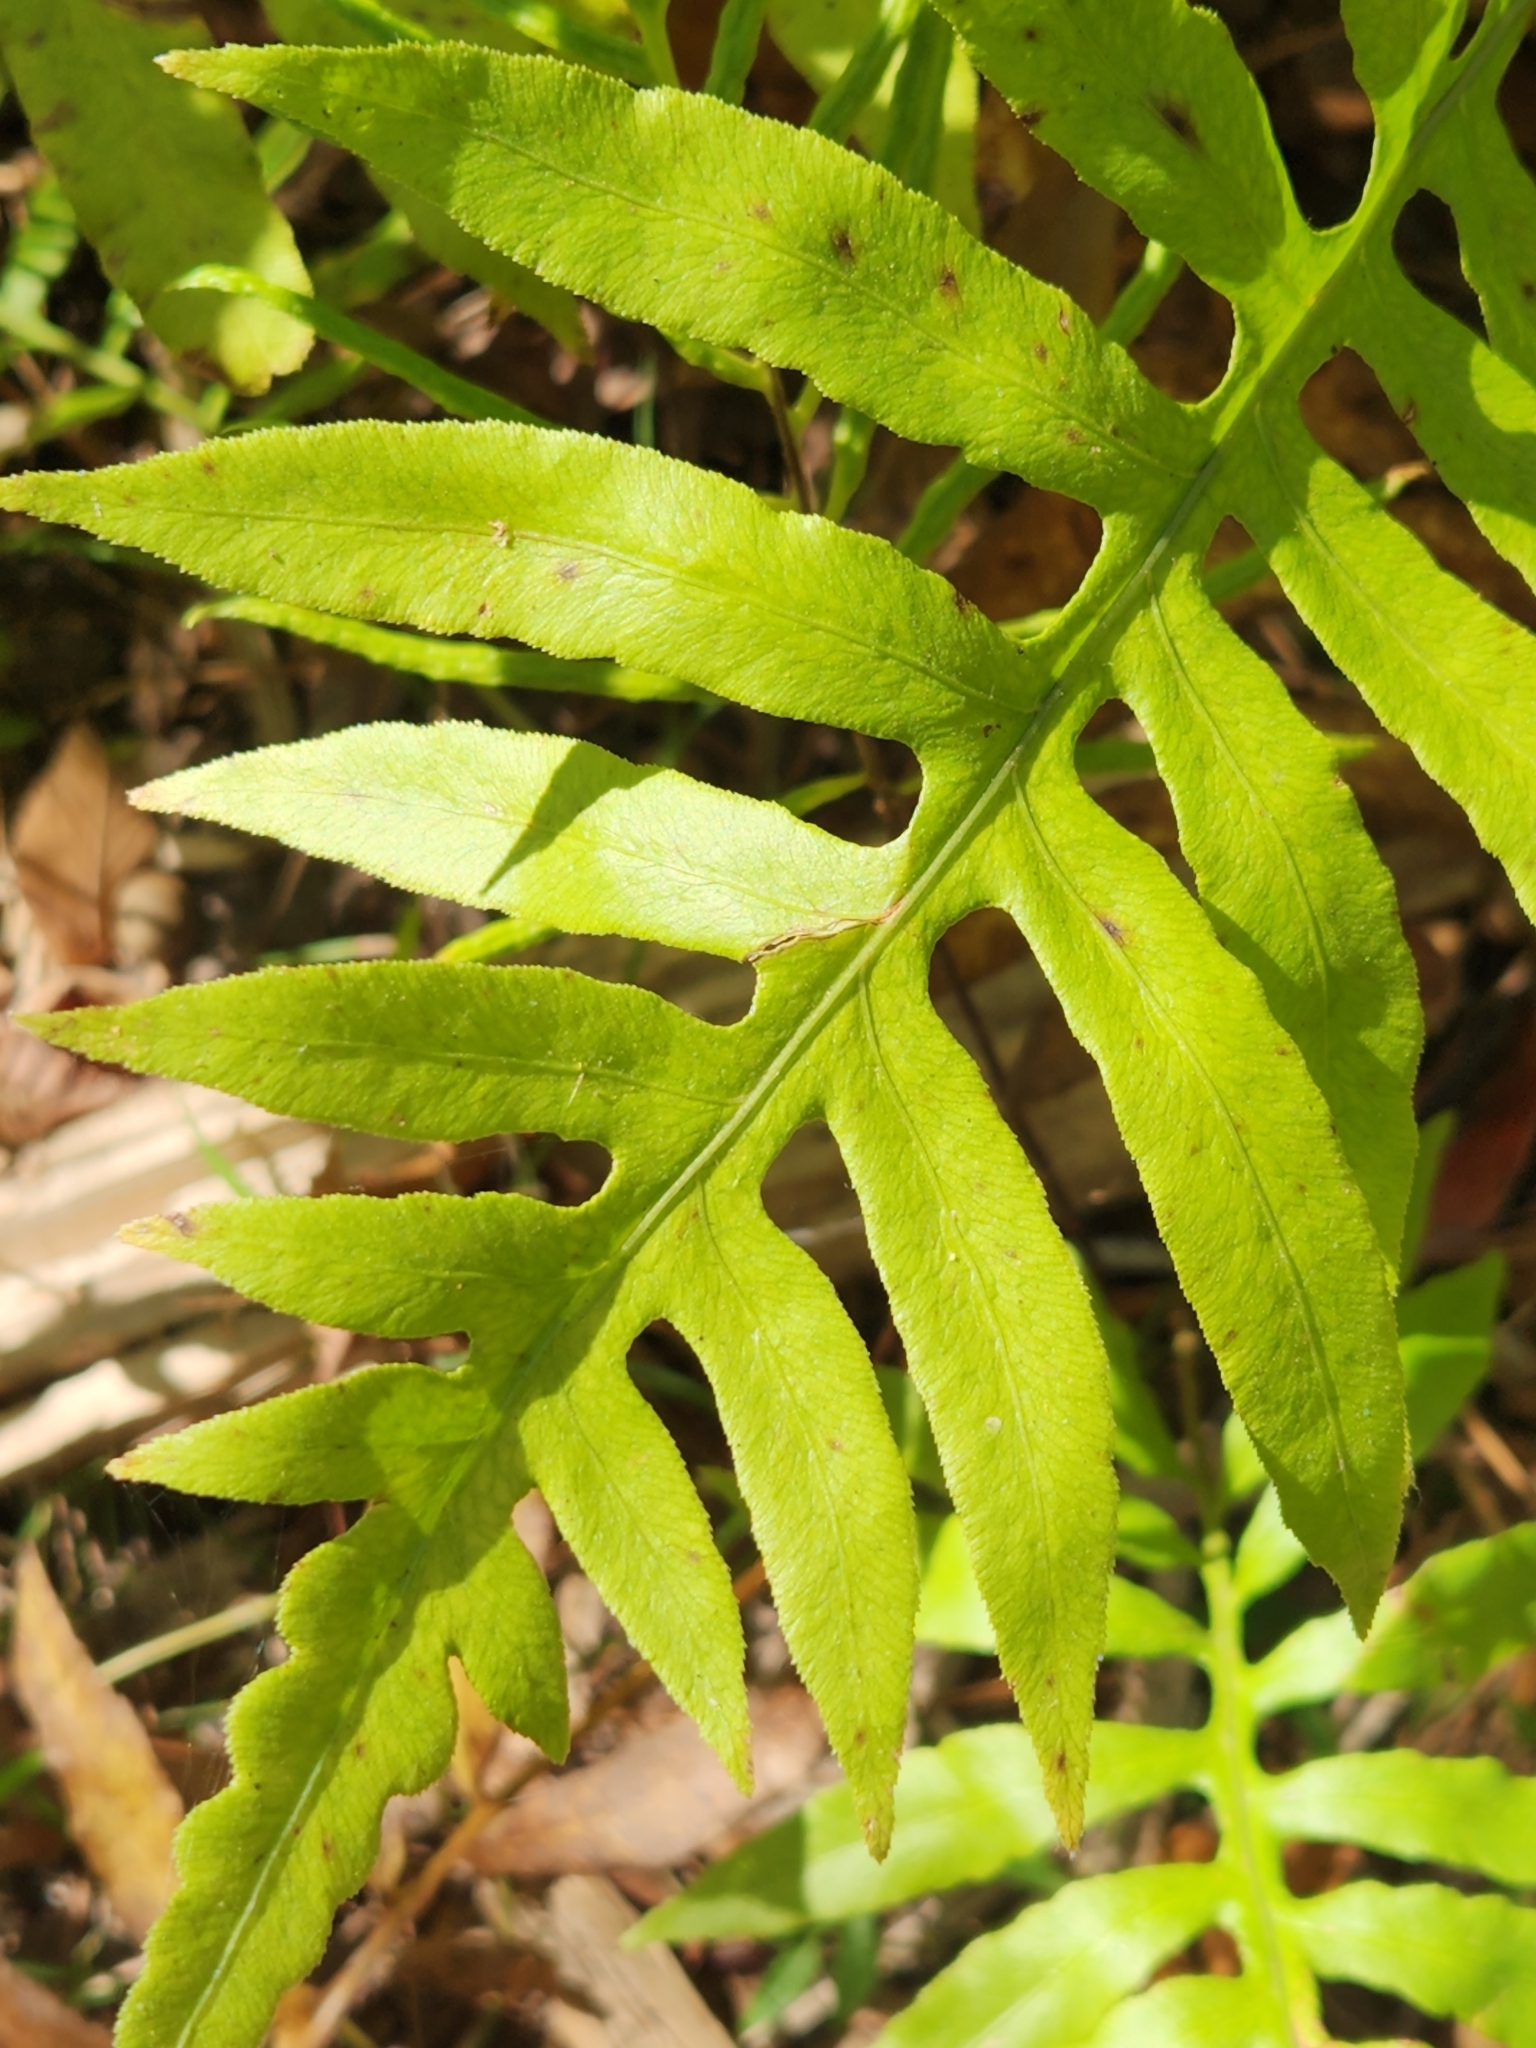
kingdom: Plantae
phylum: Tracheophyta
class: Polypodiopsida
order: Polypodiales
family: Blechnaceae
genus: Lorinseria
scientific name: Lorinseria areolata
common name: Dwarf chain fern
